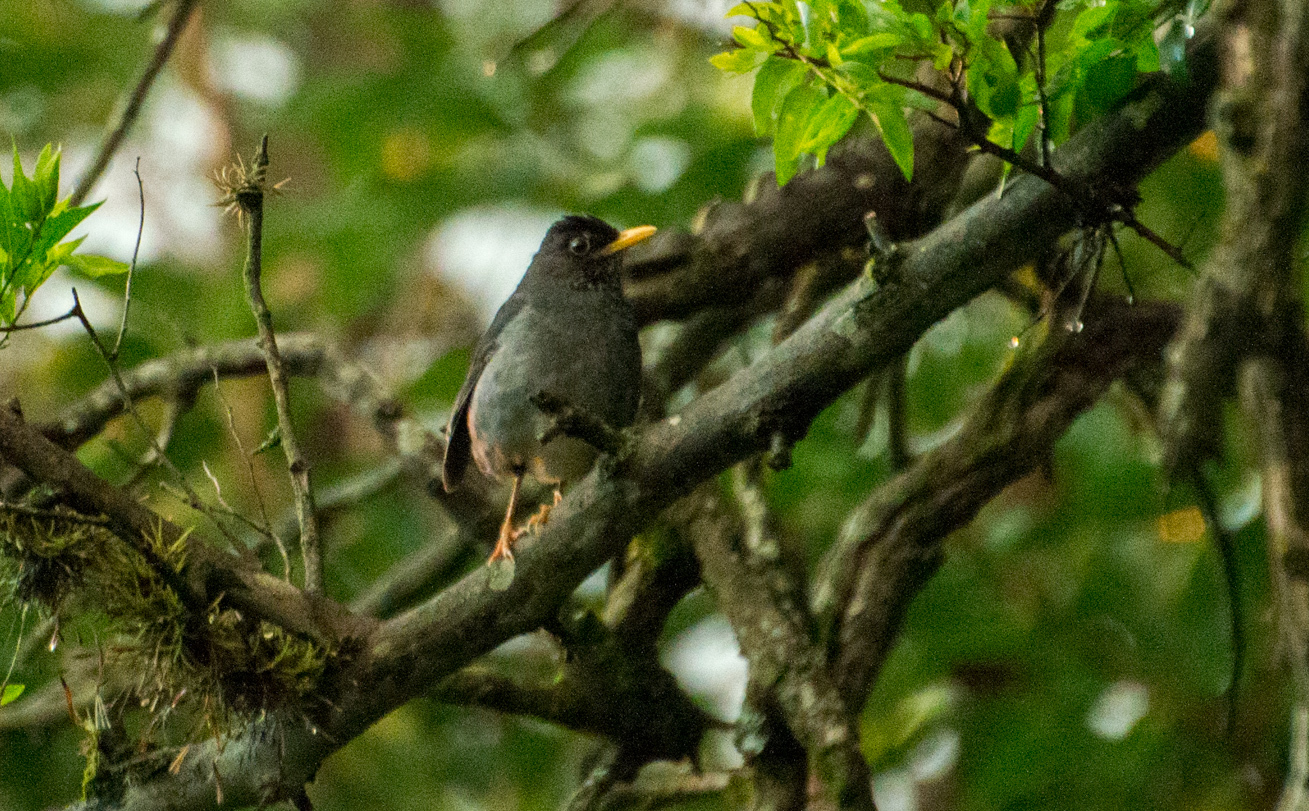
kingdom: Animalia
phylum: Chordata
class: Aves
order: Passeriformes
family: Turdidae
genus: Turdus
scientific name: Turdus nigriceps
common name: Andean slaty thrush
